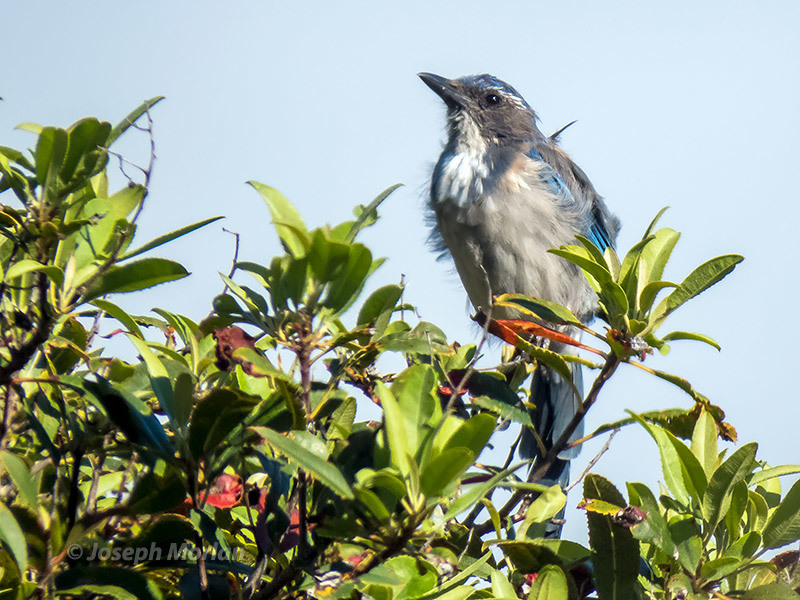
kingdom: Animalia
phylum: Chordata
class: Aves
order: Passeriformes
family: Corvidae
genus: Aphelocoma
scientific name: Aphelocoma californica
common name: California scrub-jay
